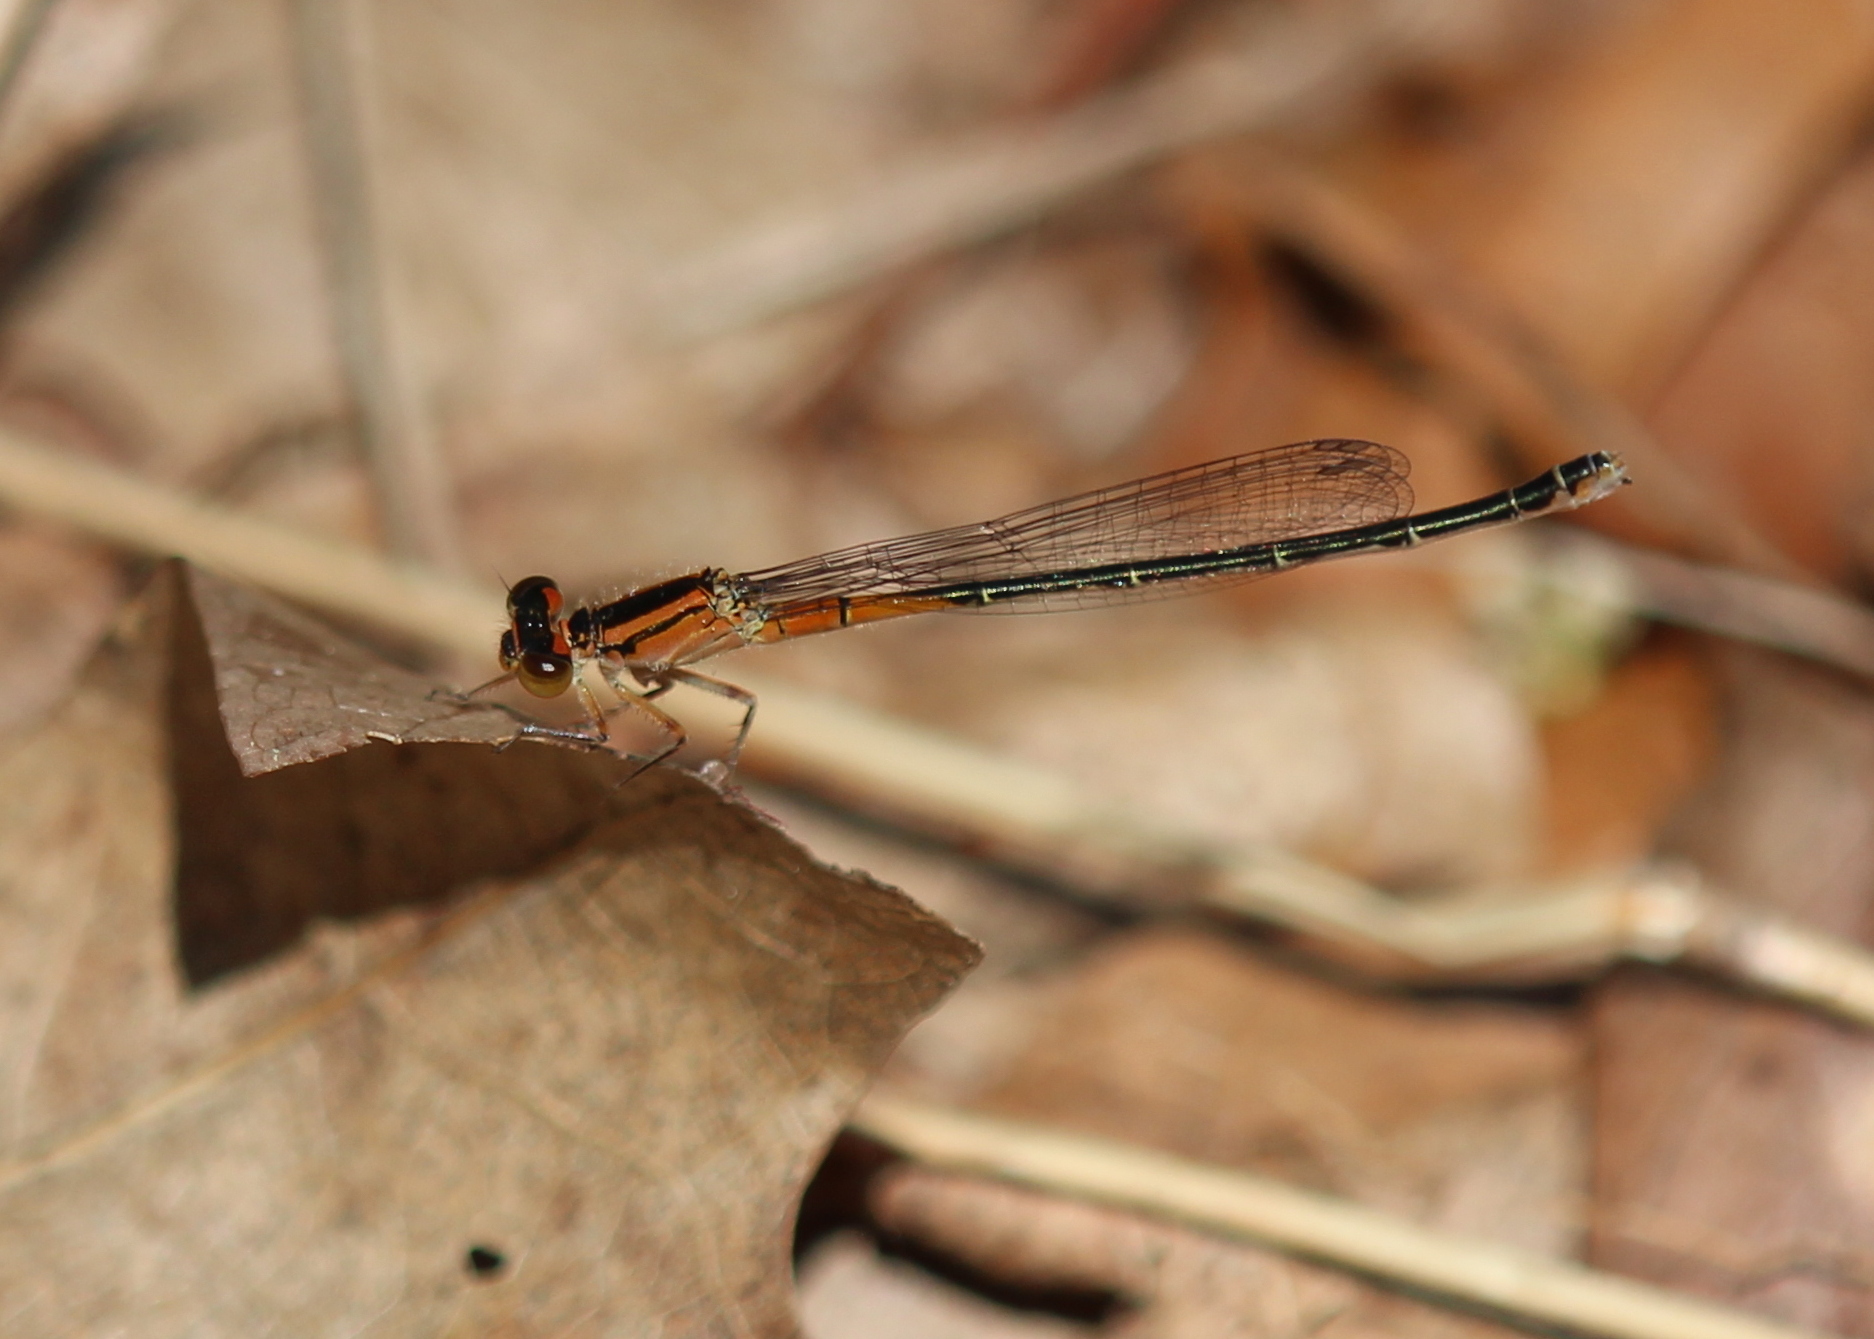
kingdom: Animalia
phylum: Arthropoda
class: Insecta
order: Odonata
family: Coenagrionidae
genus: Ischnura
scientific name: Ischnura verticalis
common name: Eastern forktail
